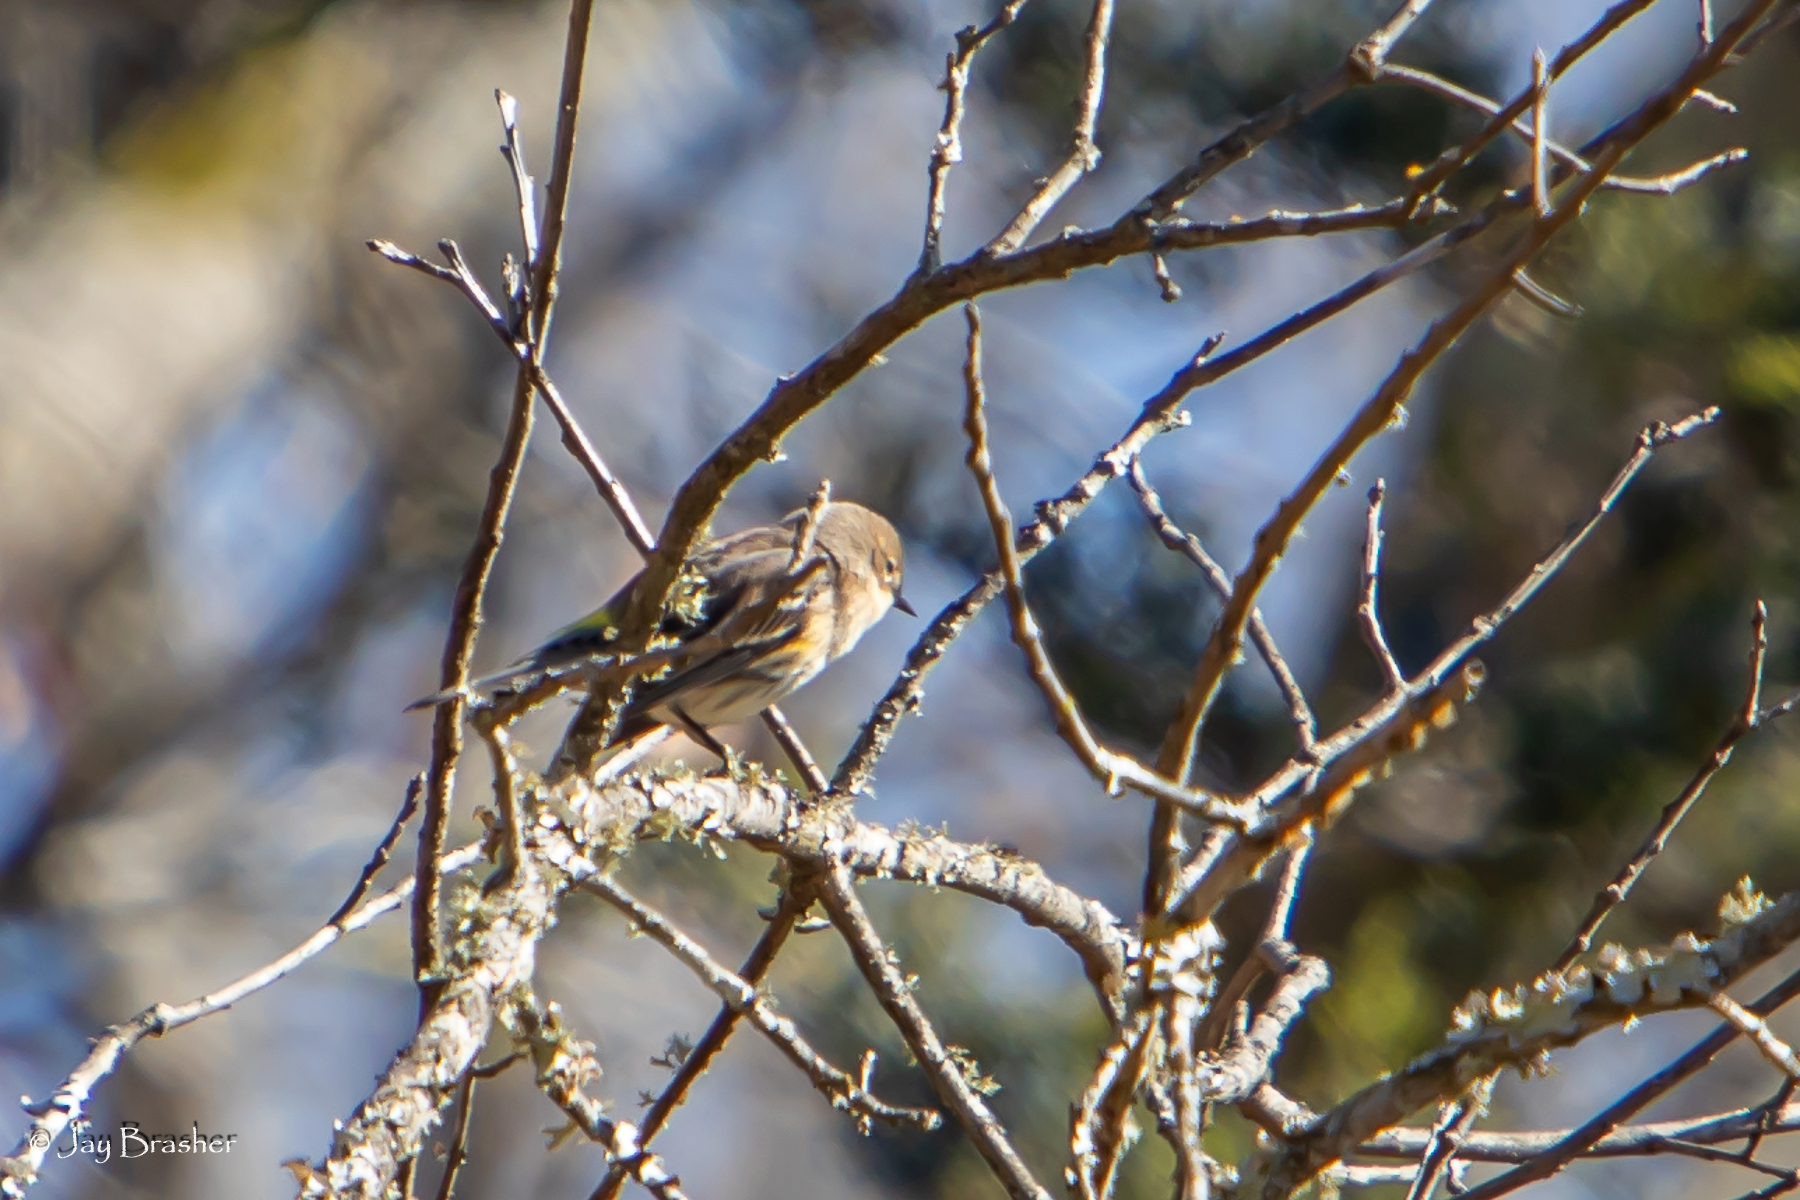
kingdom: Animalia
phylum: Chordata
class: Aves
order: Passeriformes
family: Parulidae
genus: Setophaga
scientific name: Setophaga coronata
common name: Myrtle warbler
